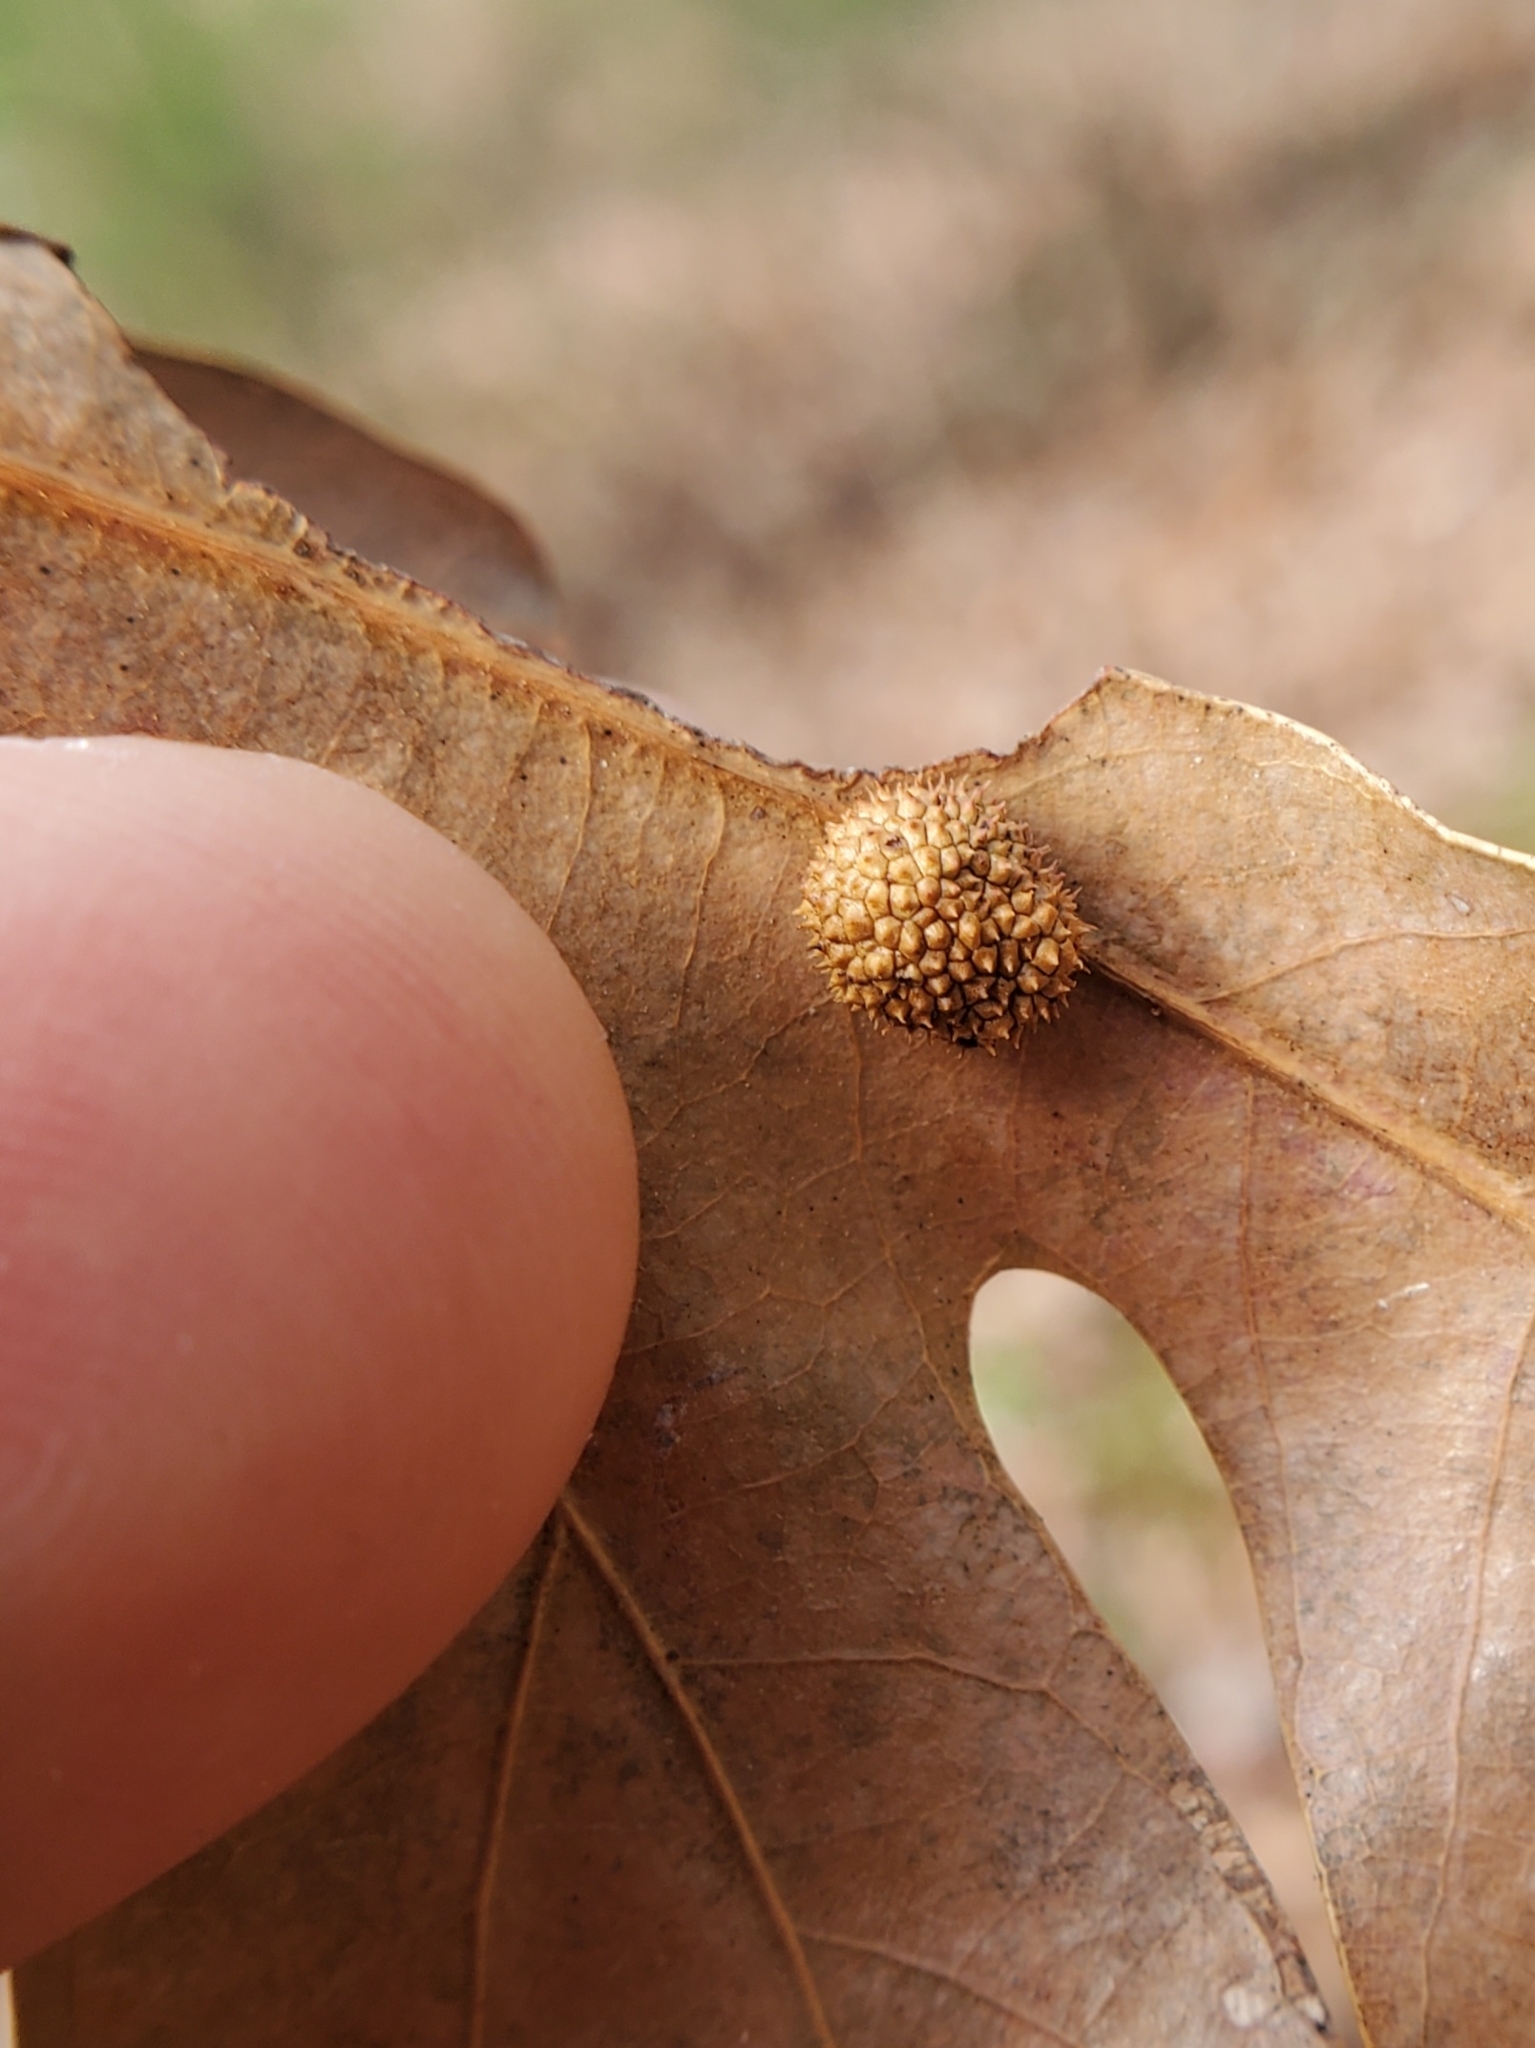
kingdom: Animalia
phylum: Arthropoda
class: Insecta
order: Hymenoptera
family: Cynipidae
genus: Acraspis
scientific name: Acraspis
